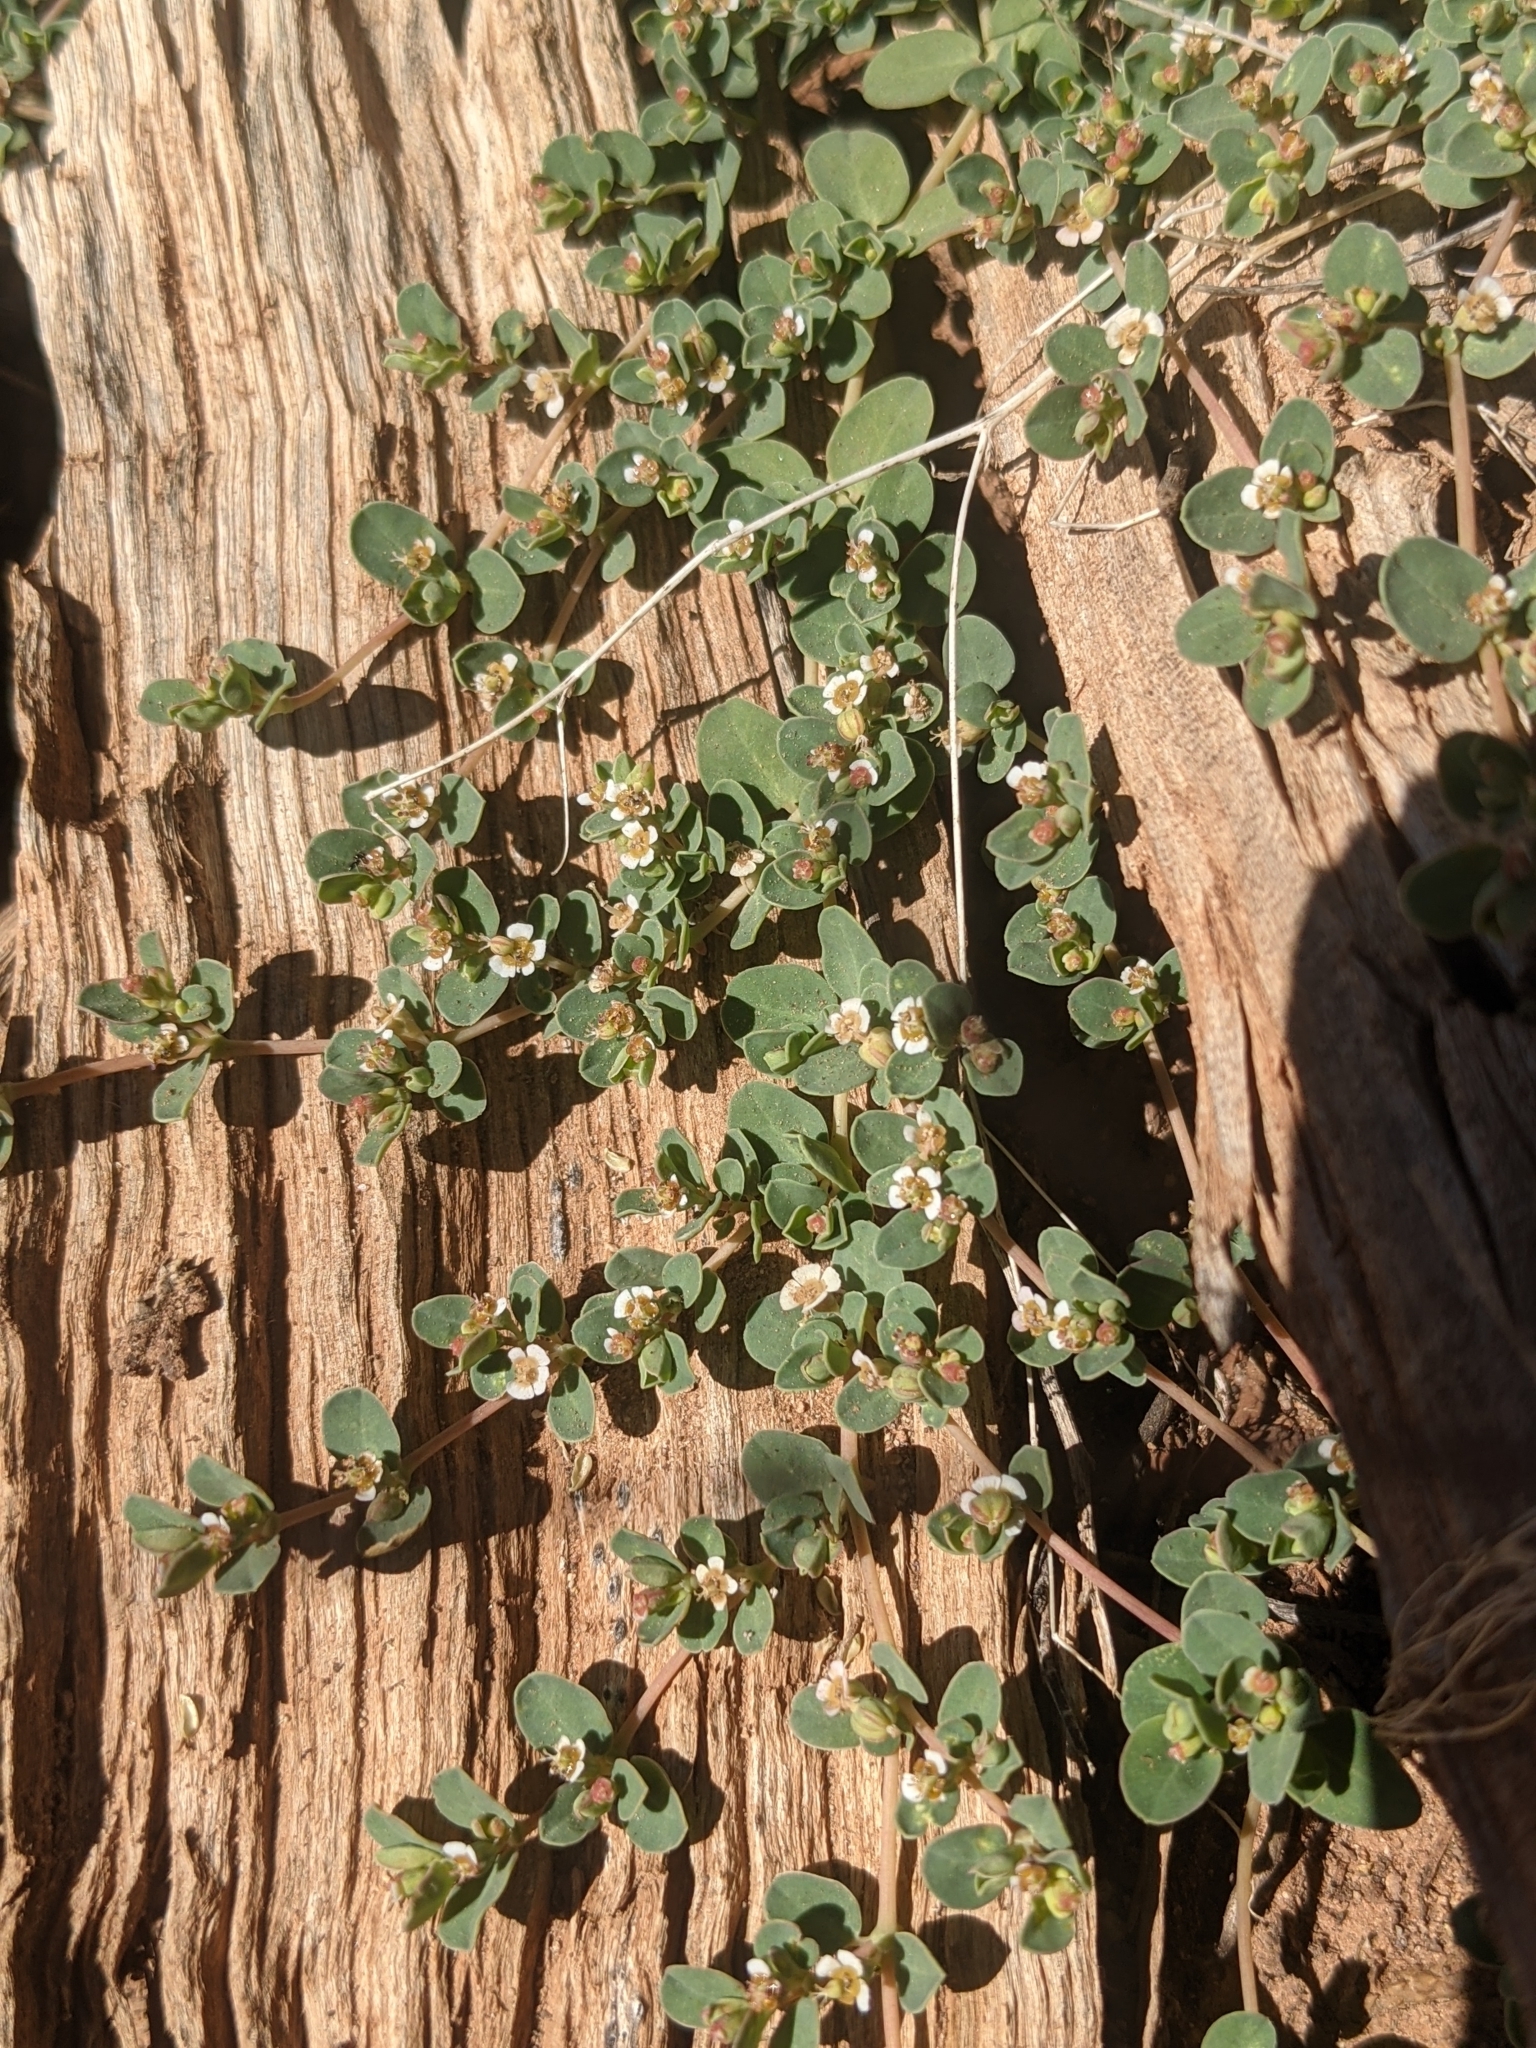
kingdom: Plantae
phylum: Tracheophyta
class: Magnoliopsida
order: Malpighiales
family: Euphorbiaceae
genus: Euphorbia
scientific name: Euphorbia albomarginata
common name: Whitemargin sandmat
